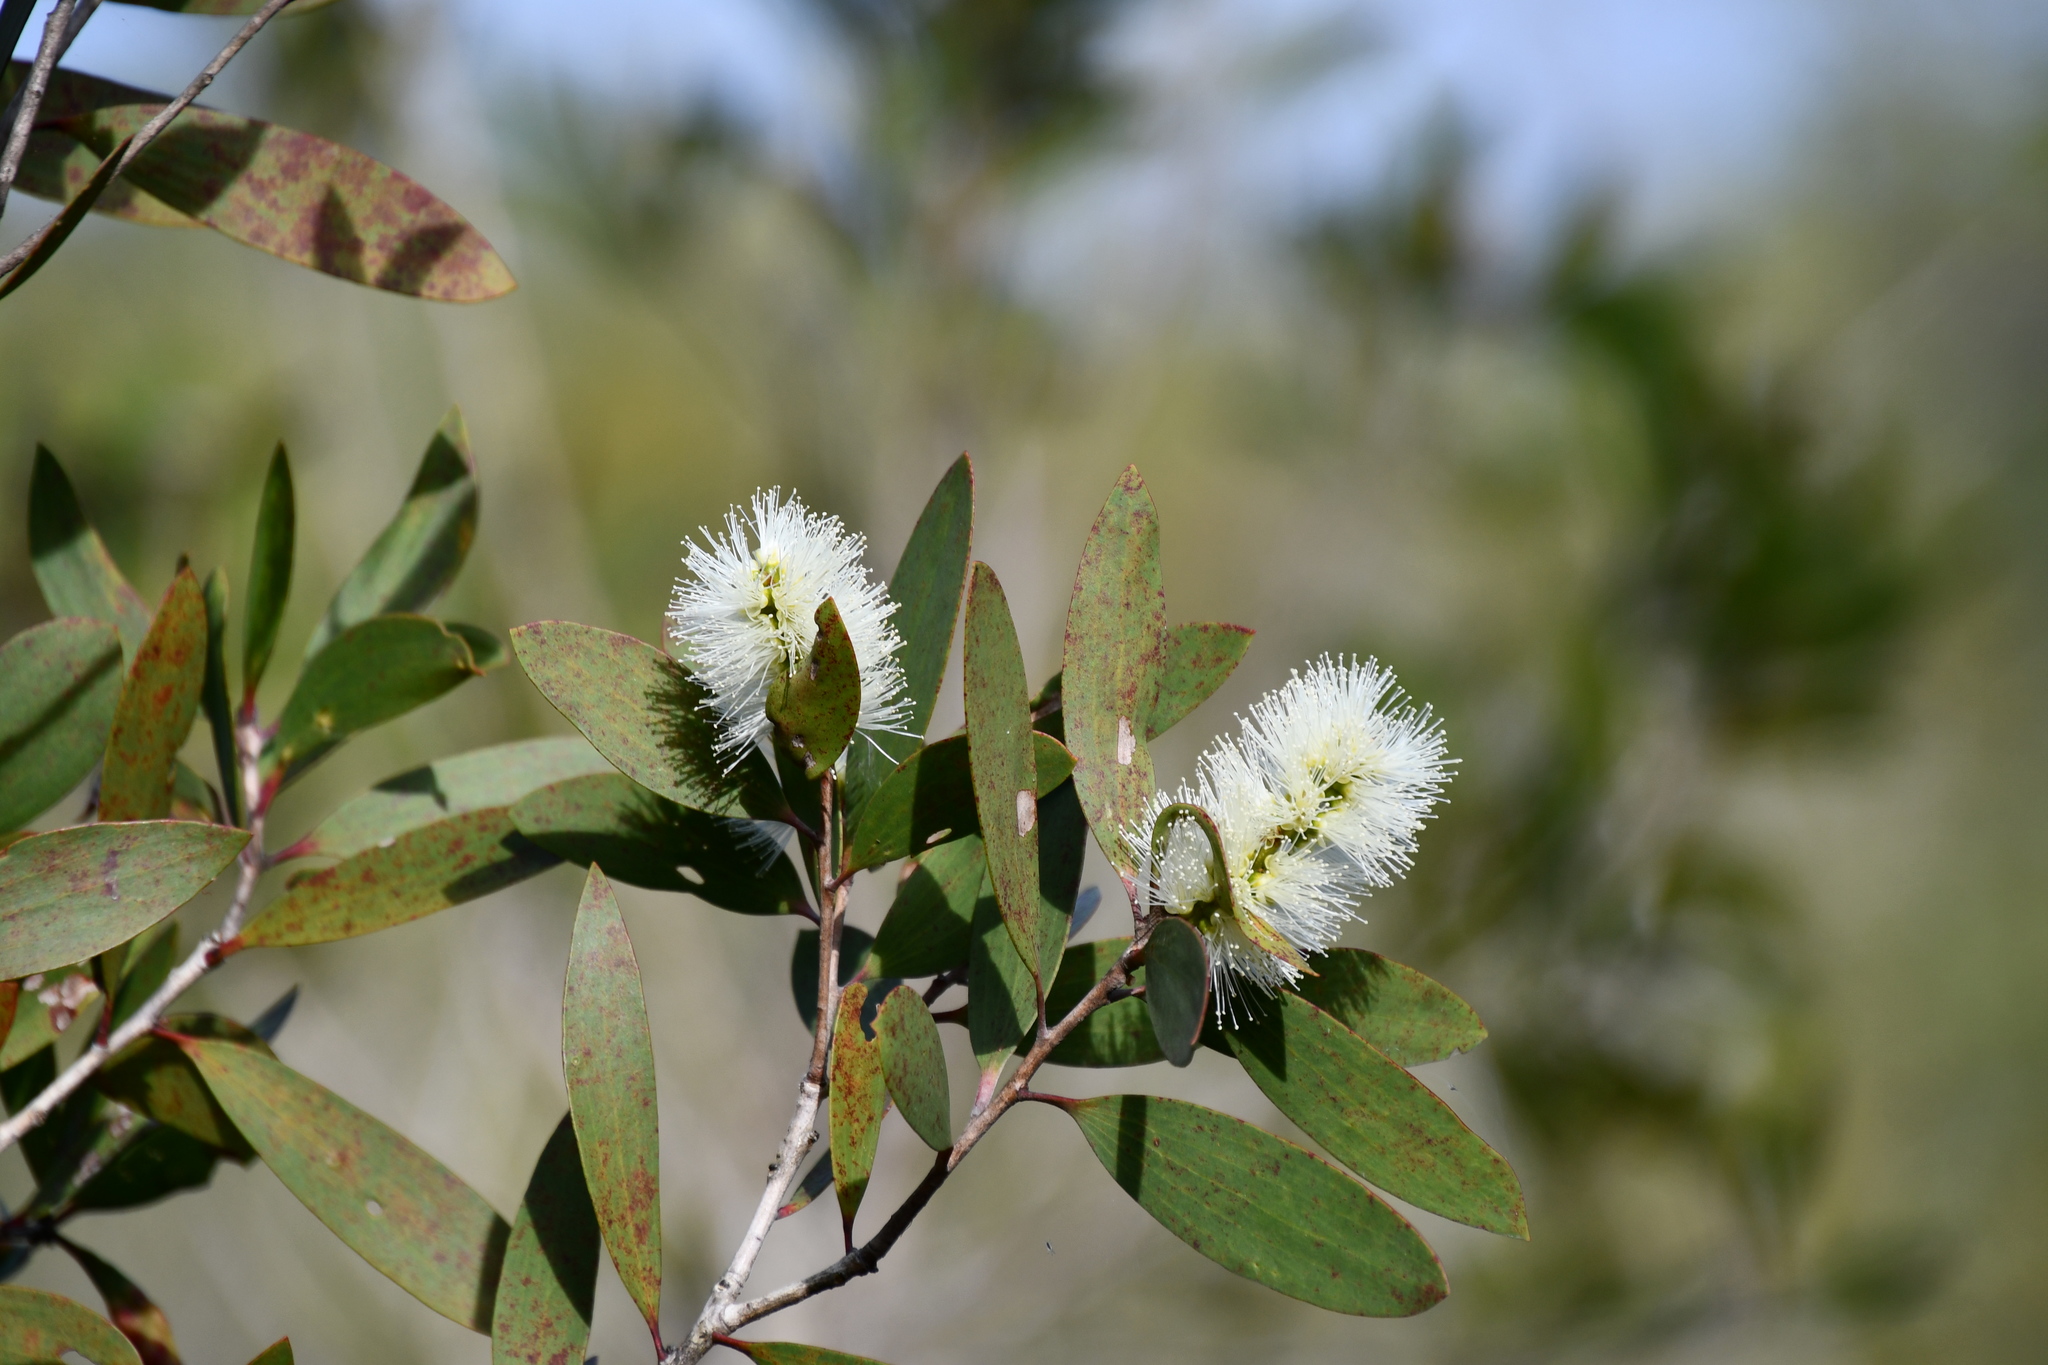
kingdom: Plantae
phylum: Tracheophyta
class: Magnoliopsida
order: Myrtales
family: Myrtaceae
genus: Melaleuca
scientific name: Melaleuca quinquenervia
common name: Punktree
